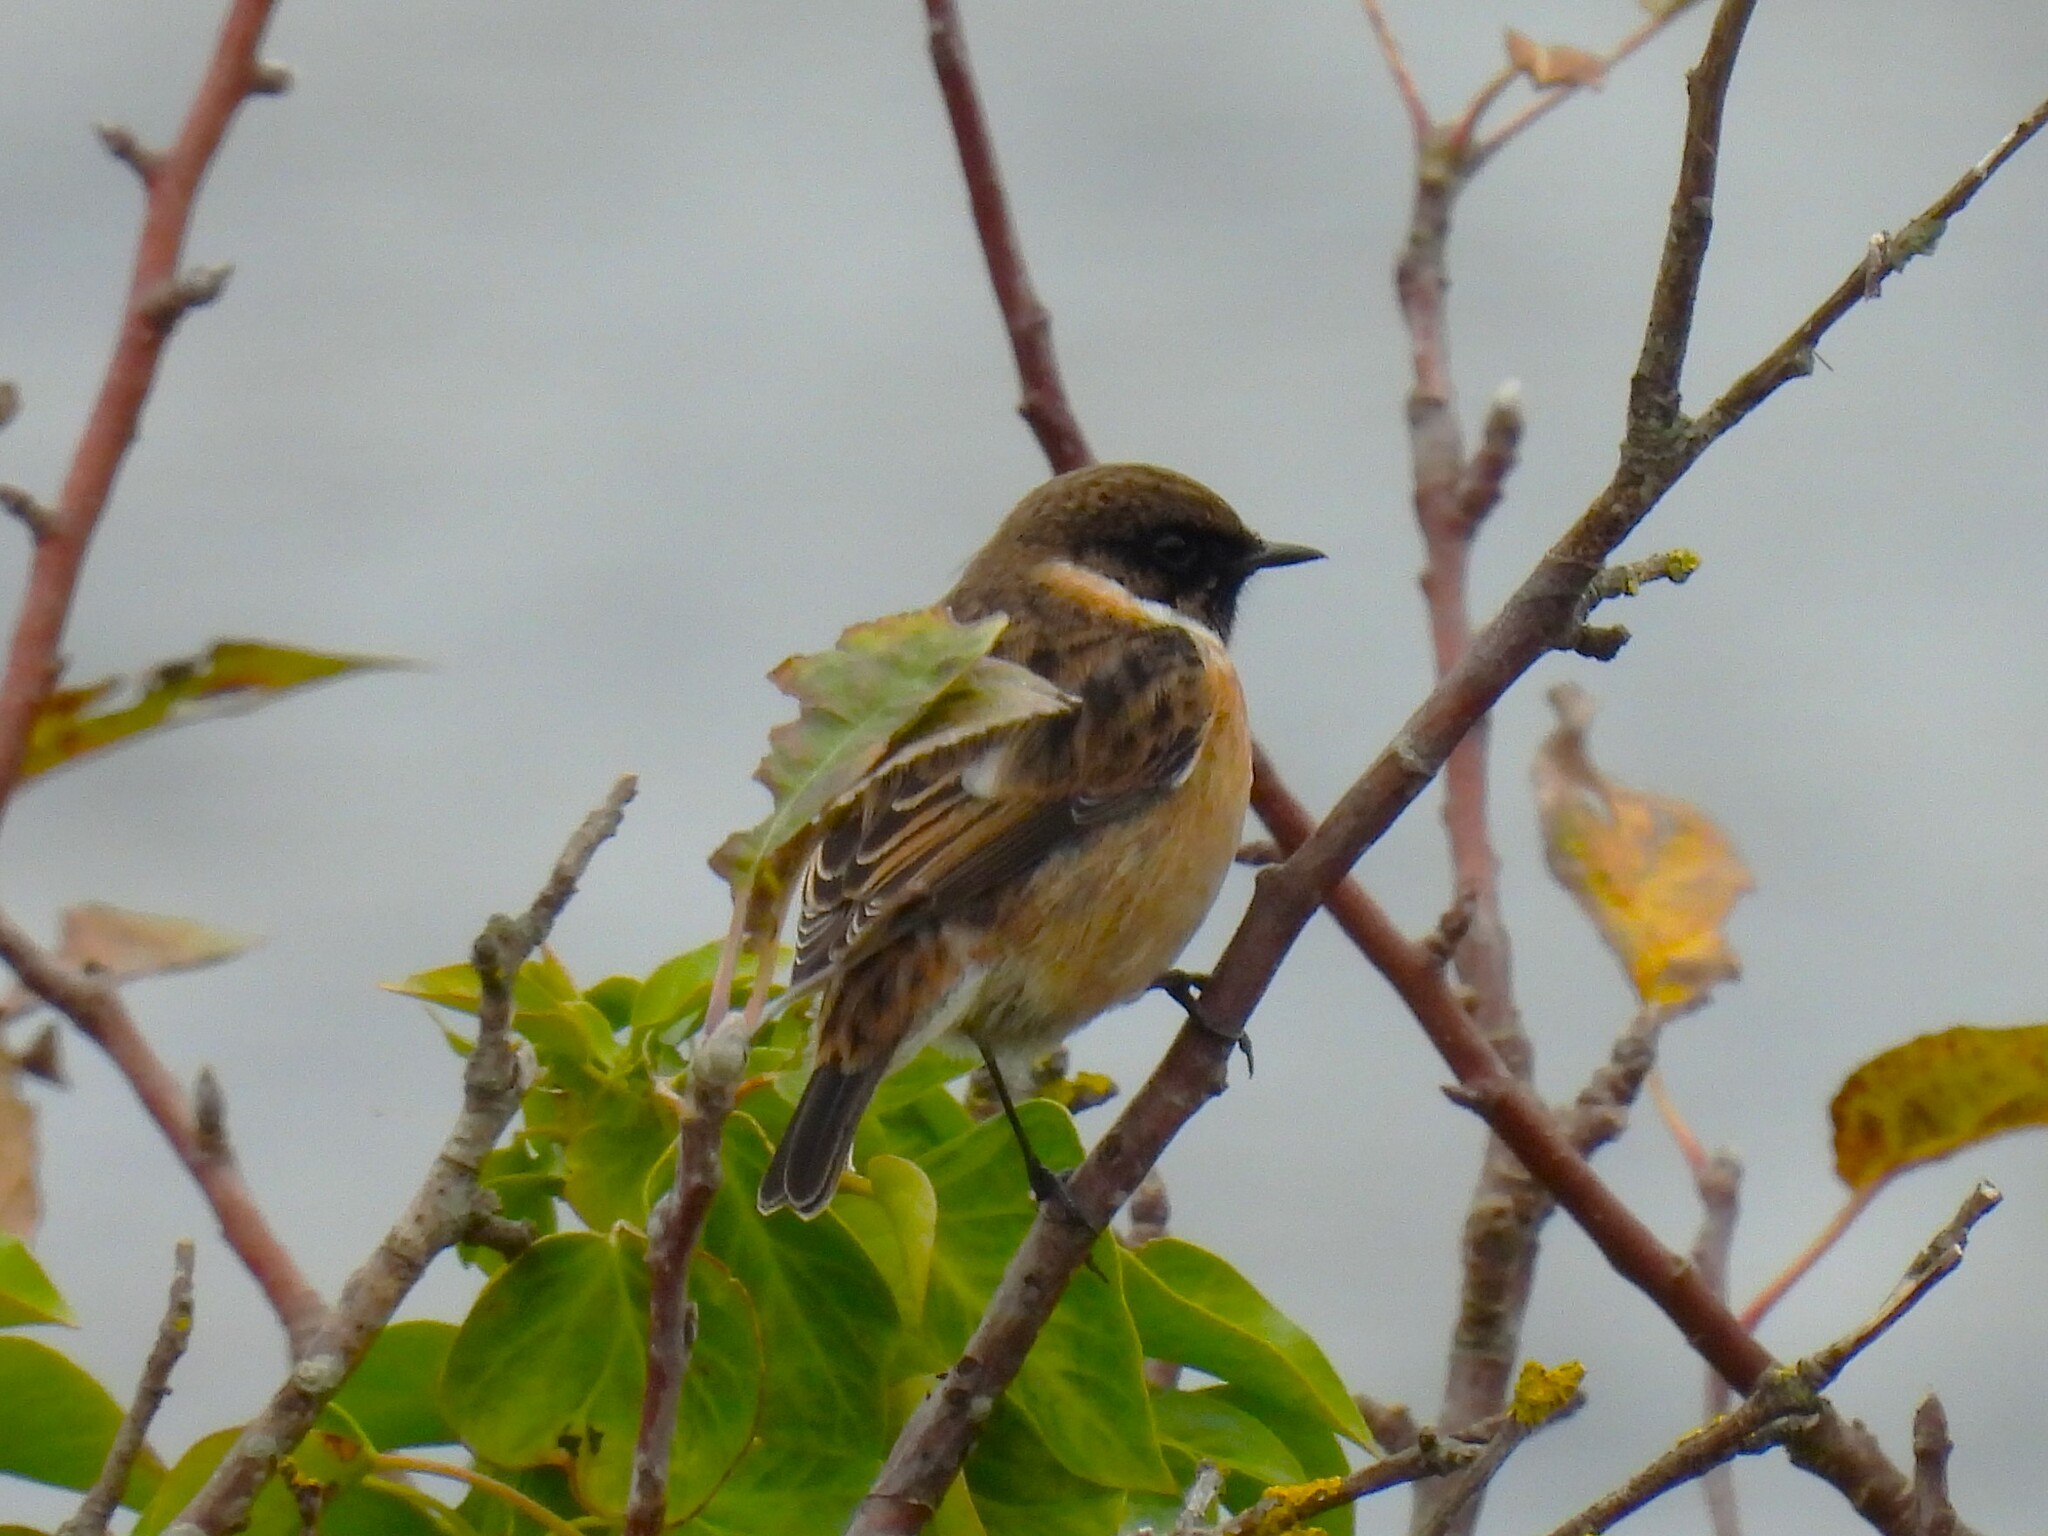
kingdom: Animalia
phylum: Chordata
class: Aves
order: Passeriformes
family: Muscicapidae
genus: Saxicola
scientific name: Saxicola rubicola
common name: European stonechat
